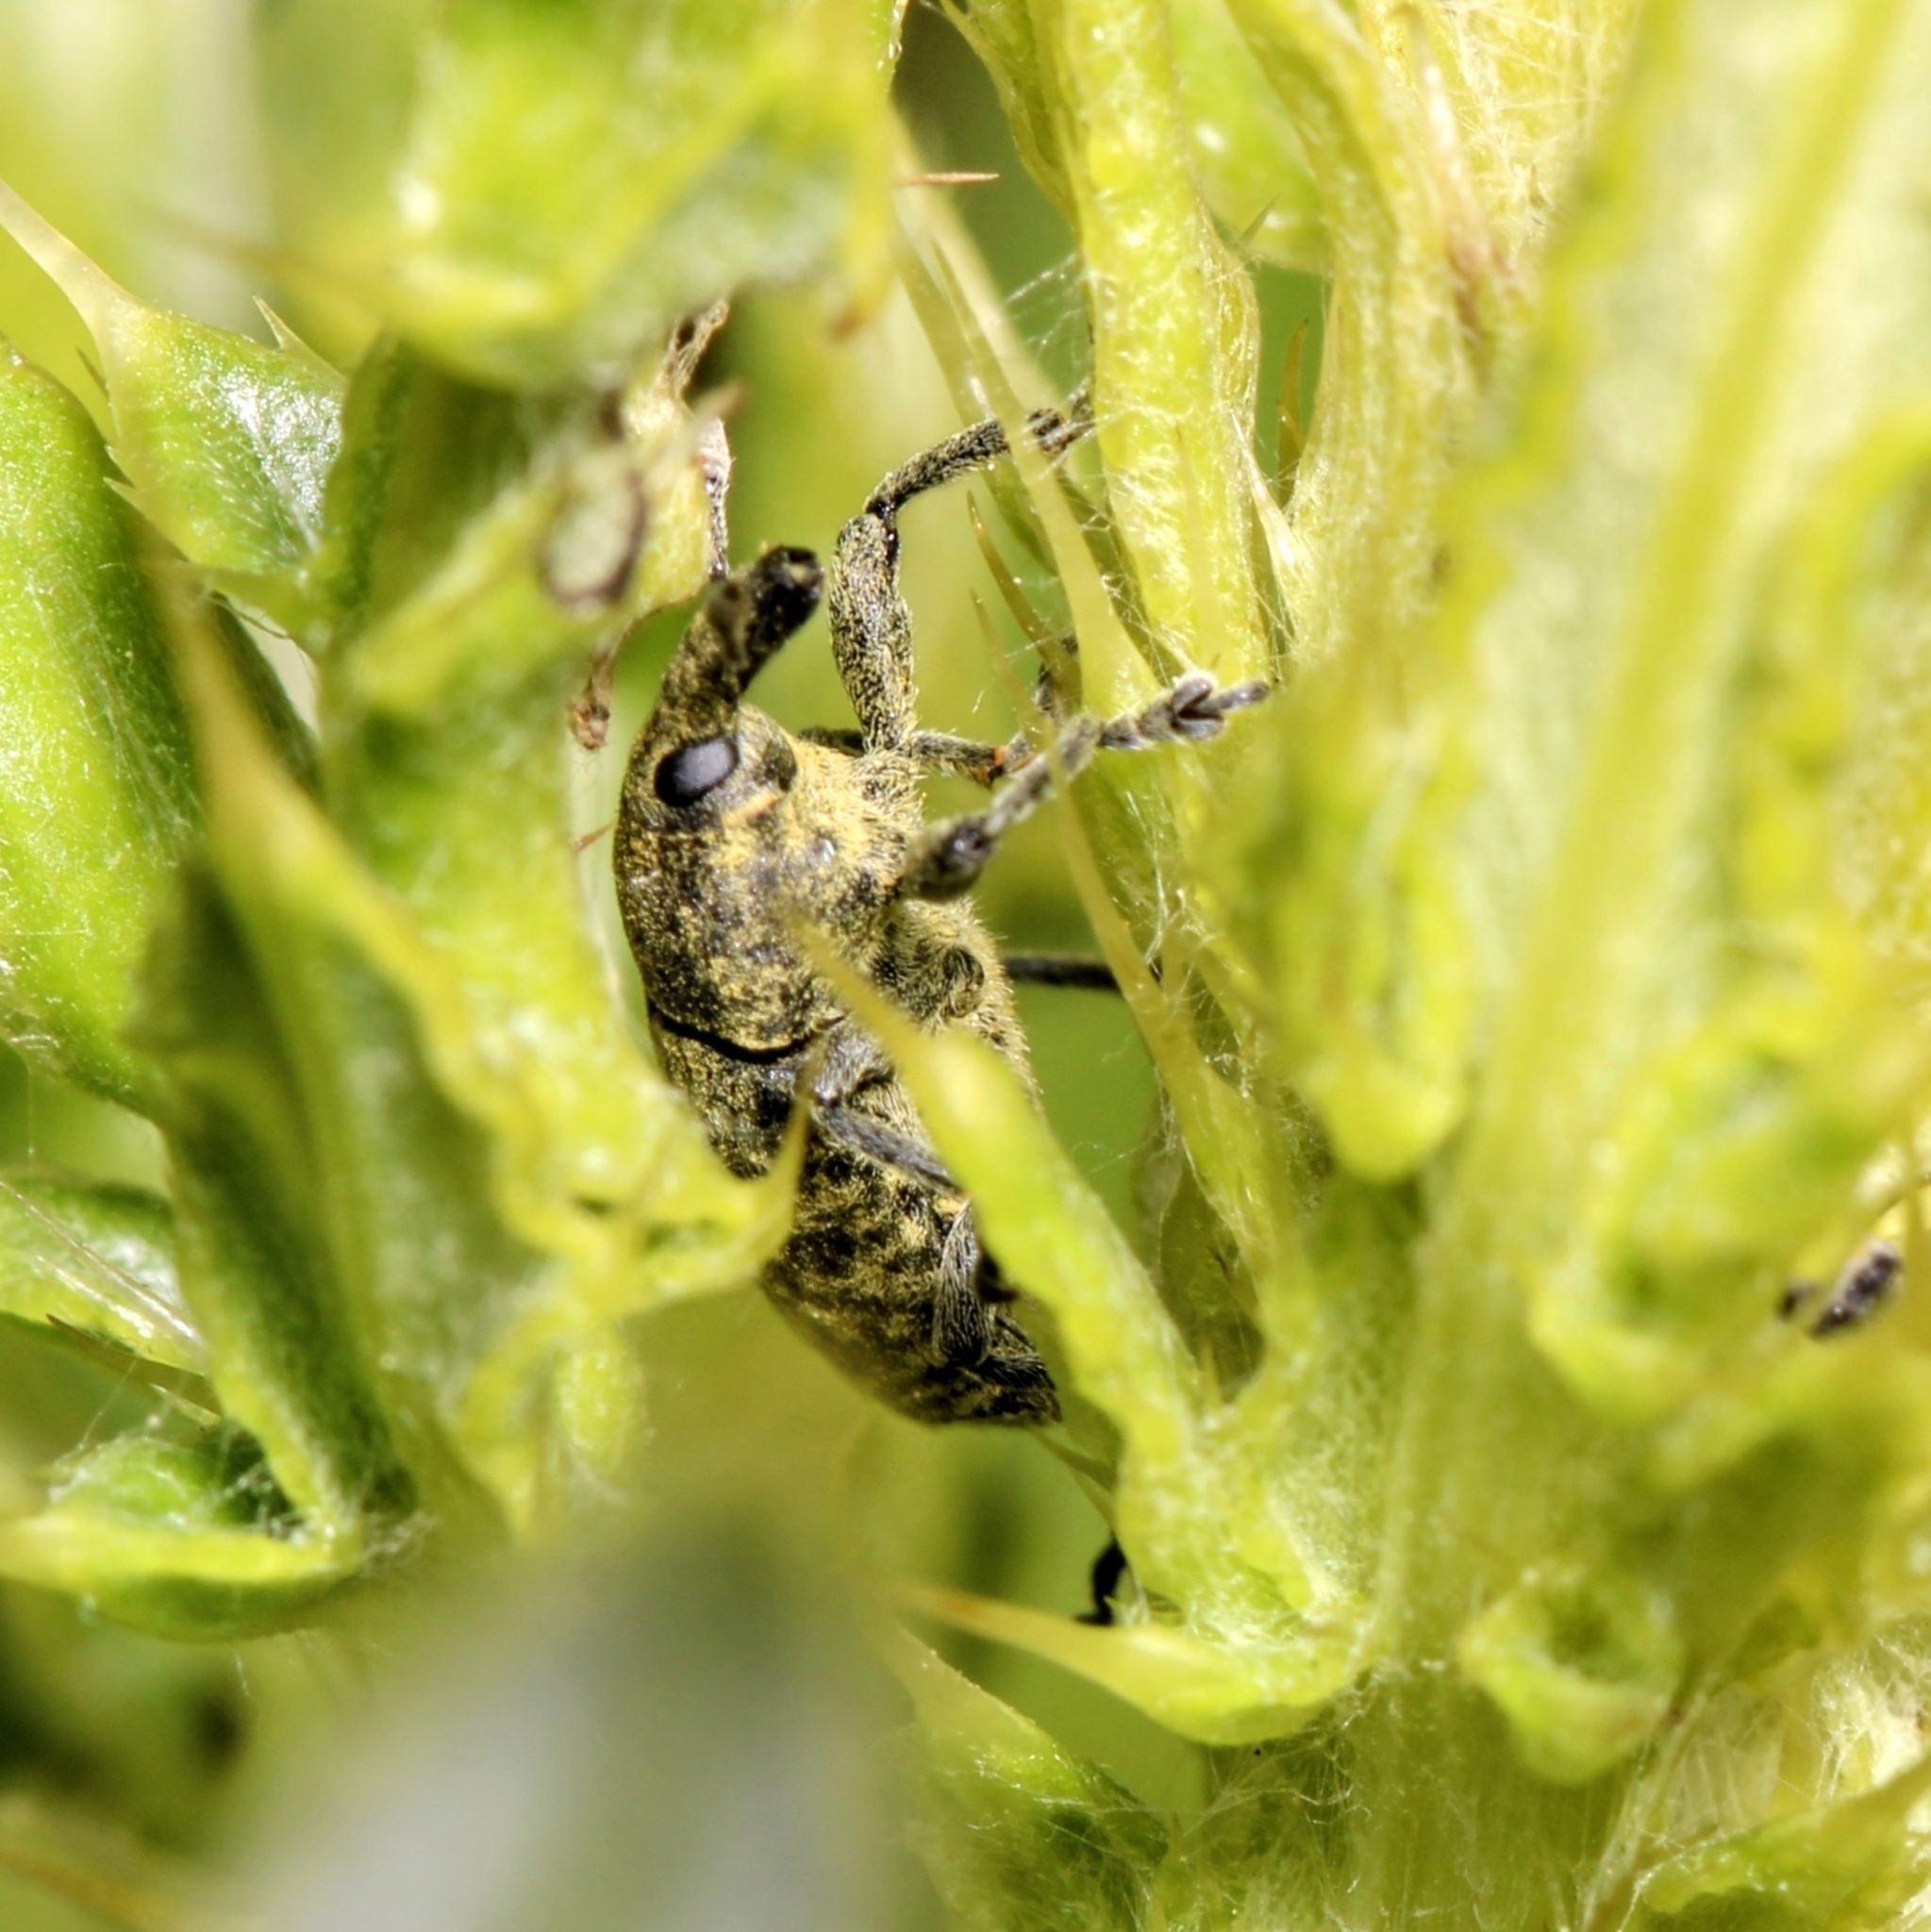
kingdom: Animalia
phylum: Arthropoda
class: Insecta
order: Coleoptera
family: Curculionidae
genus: Larinus
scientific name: Larinus carlinae
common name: Weevil
